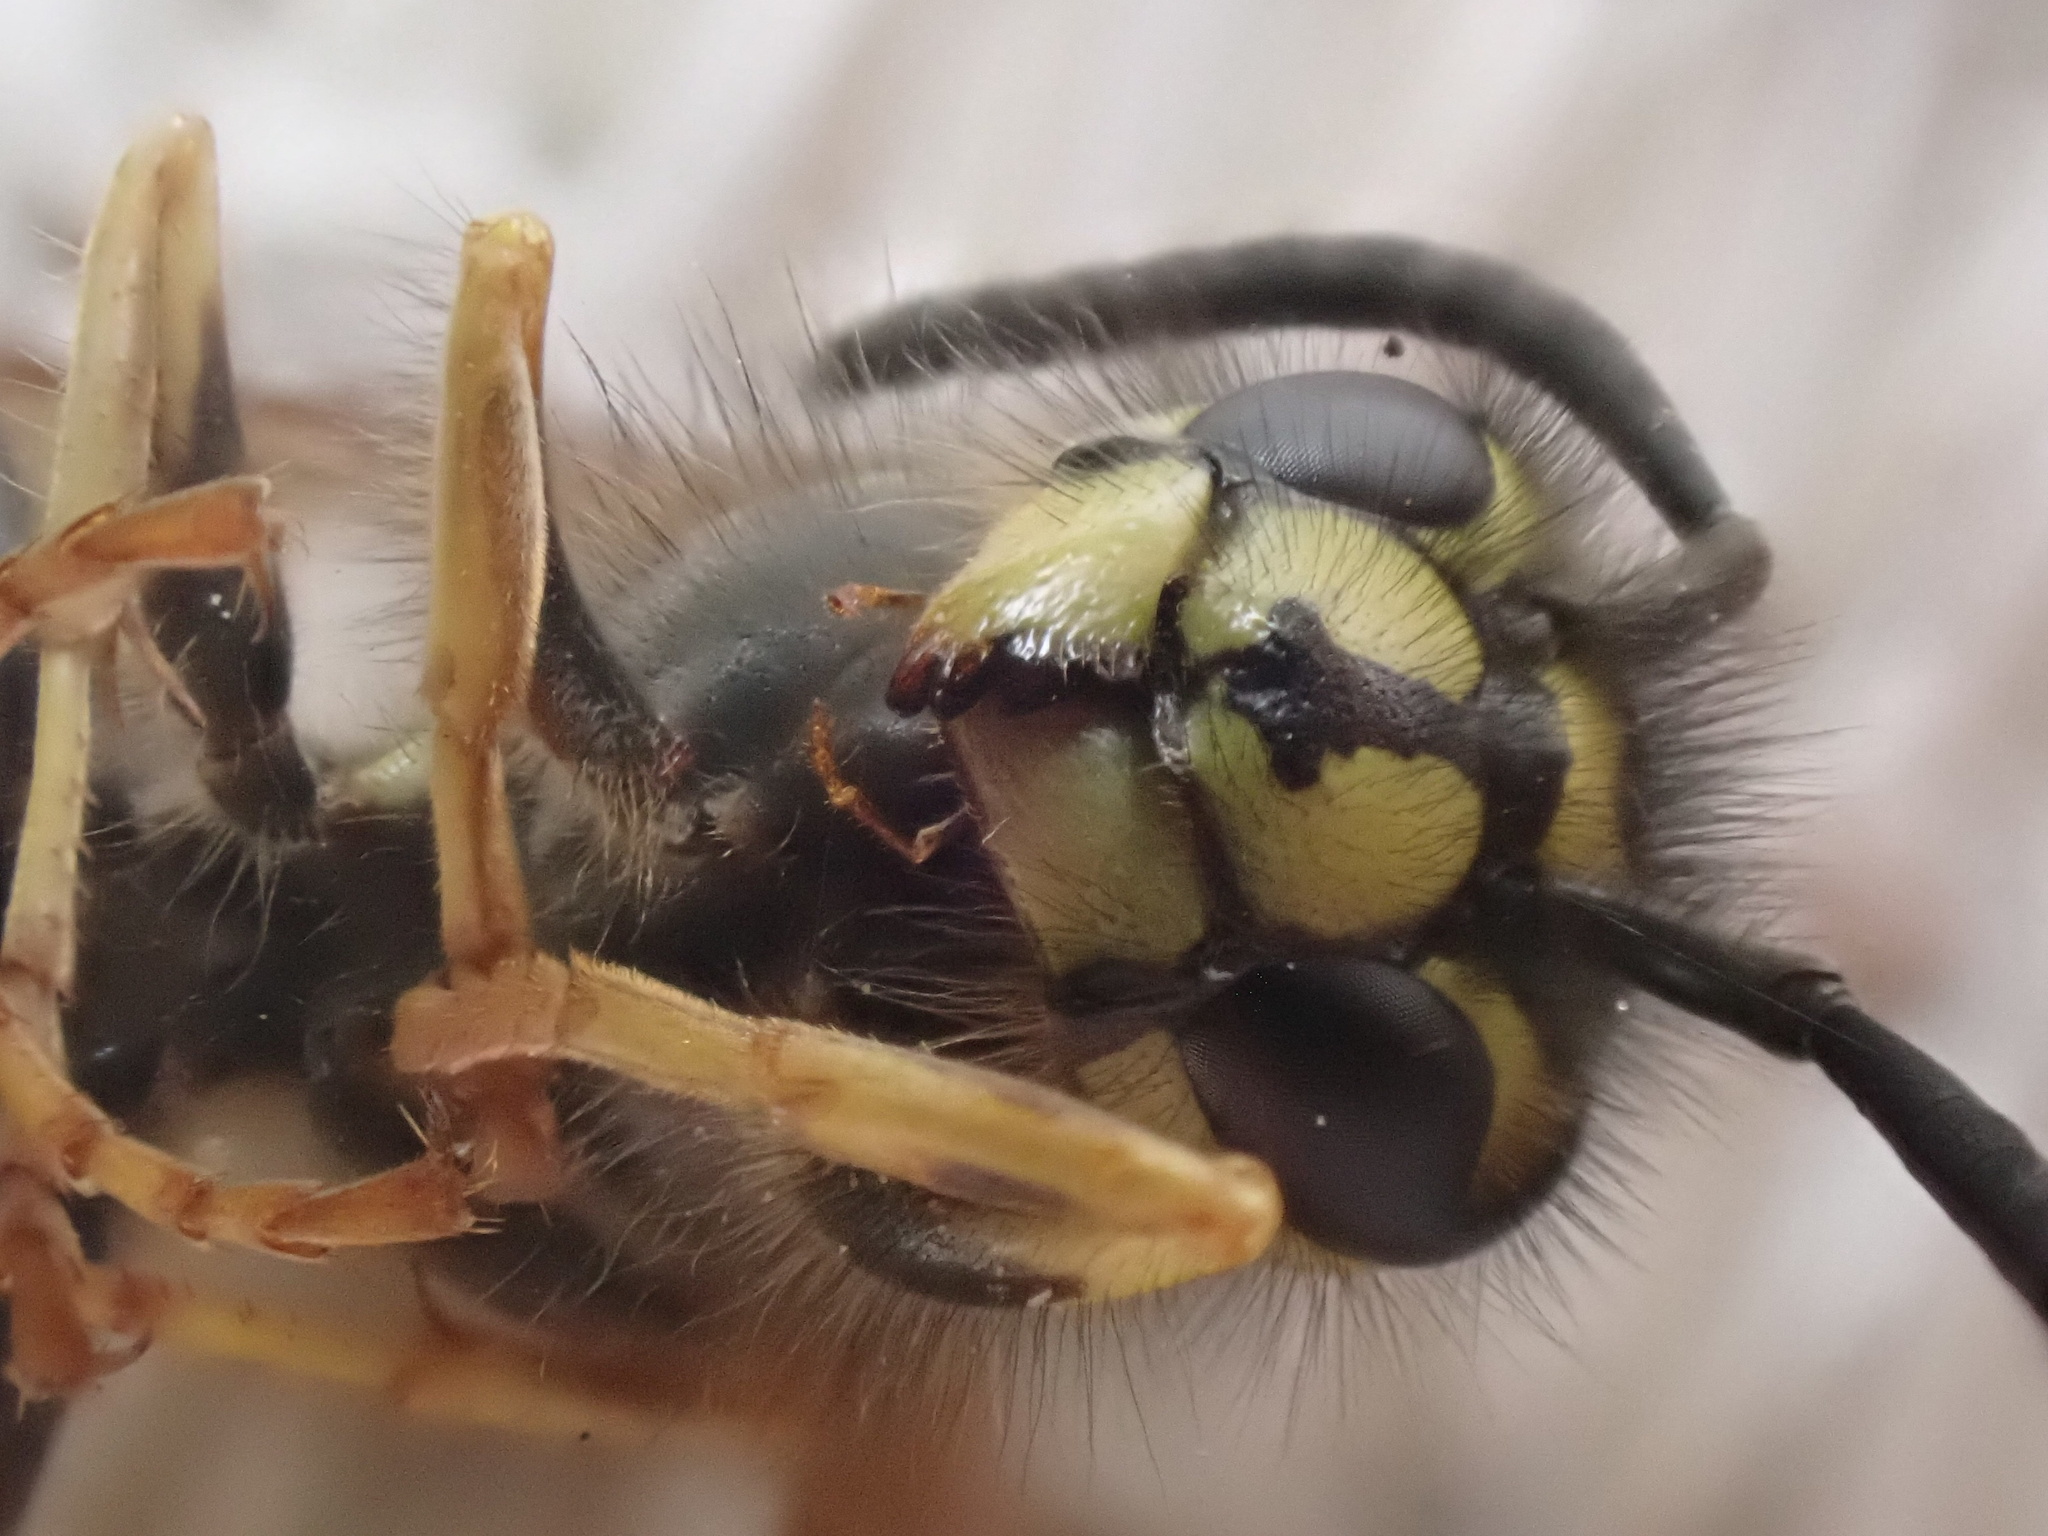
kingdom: Animalia
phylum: Arthropoda
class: Insecta
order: Hymenoptera
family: Vespidae
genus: Vespula
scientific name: Vespula vulgaris
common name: Common wasp
